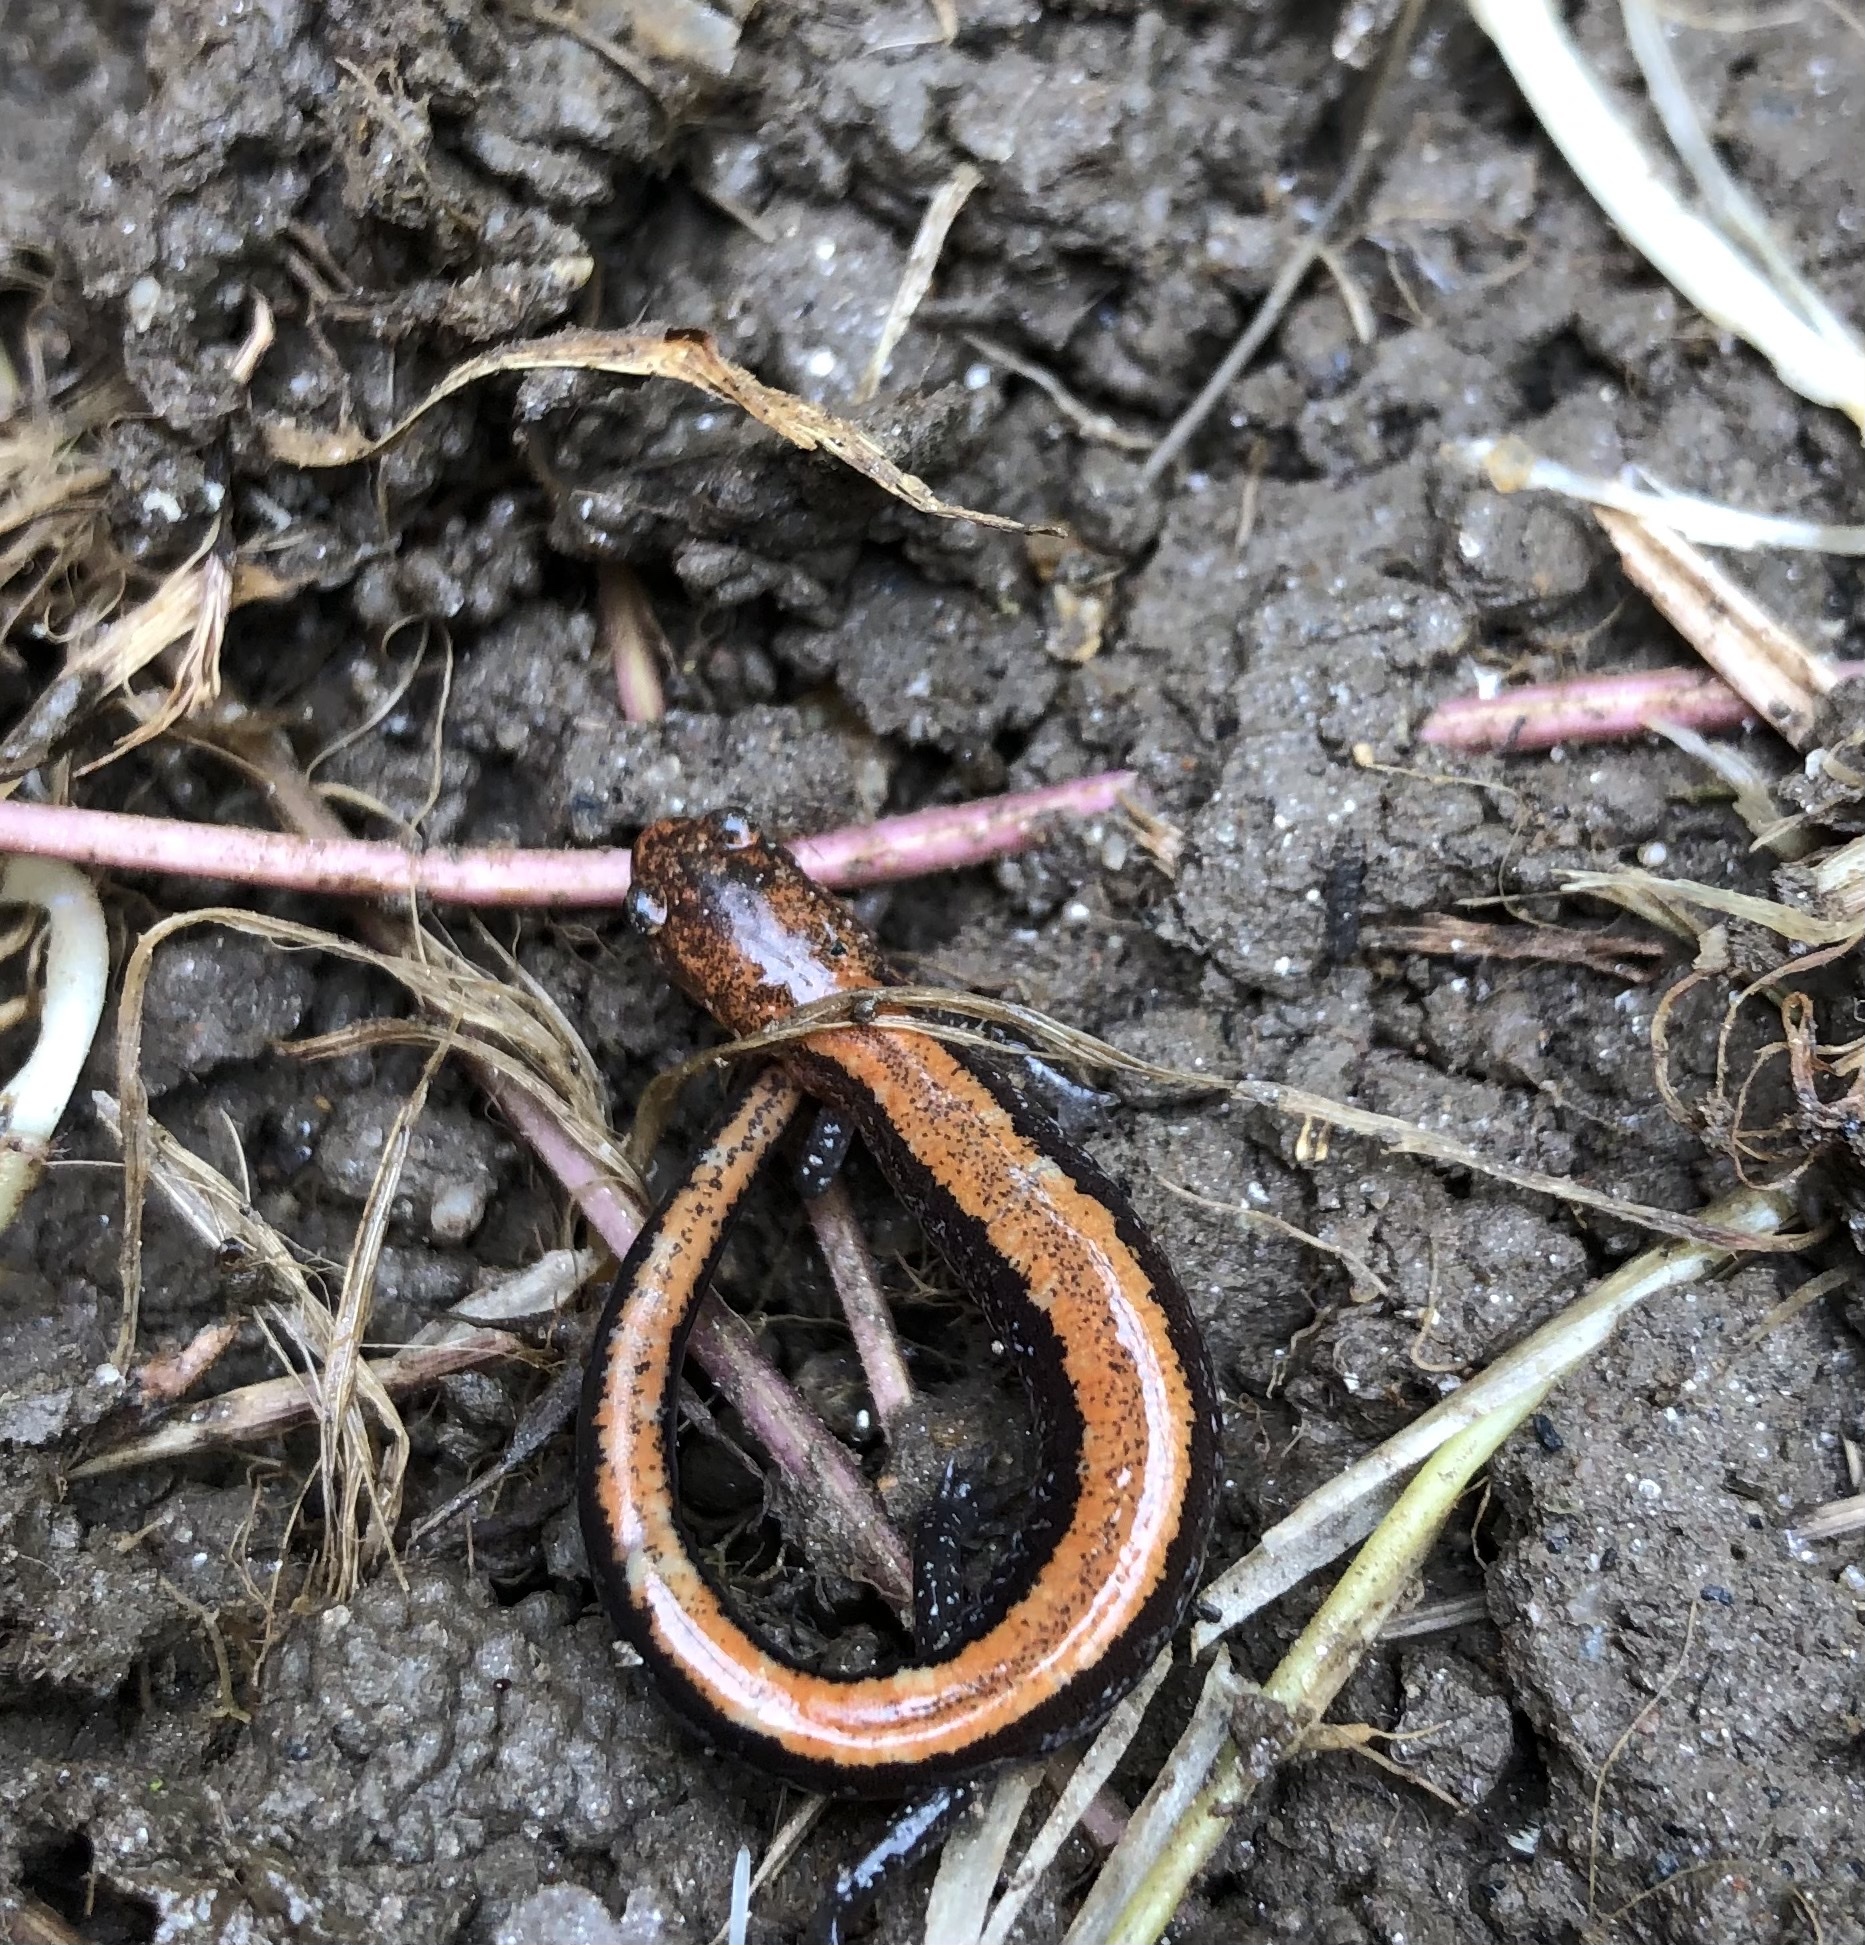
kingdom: Animalia
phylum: Chordata
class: Amphibia
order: Caudata
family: Plethodontidae
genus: Plethodon
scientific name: Plethodon cinereus
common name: Redback salamander
